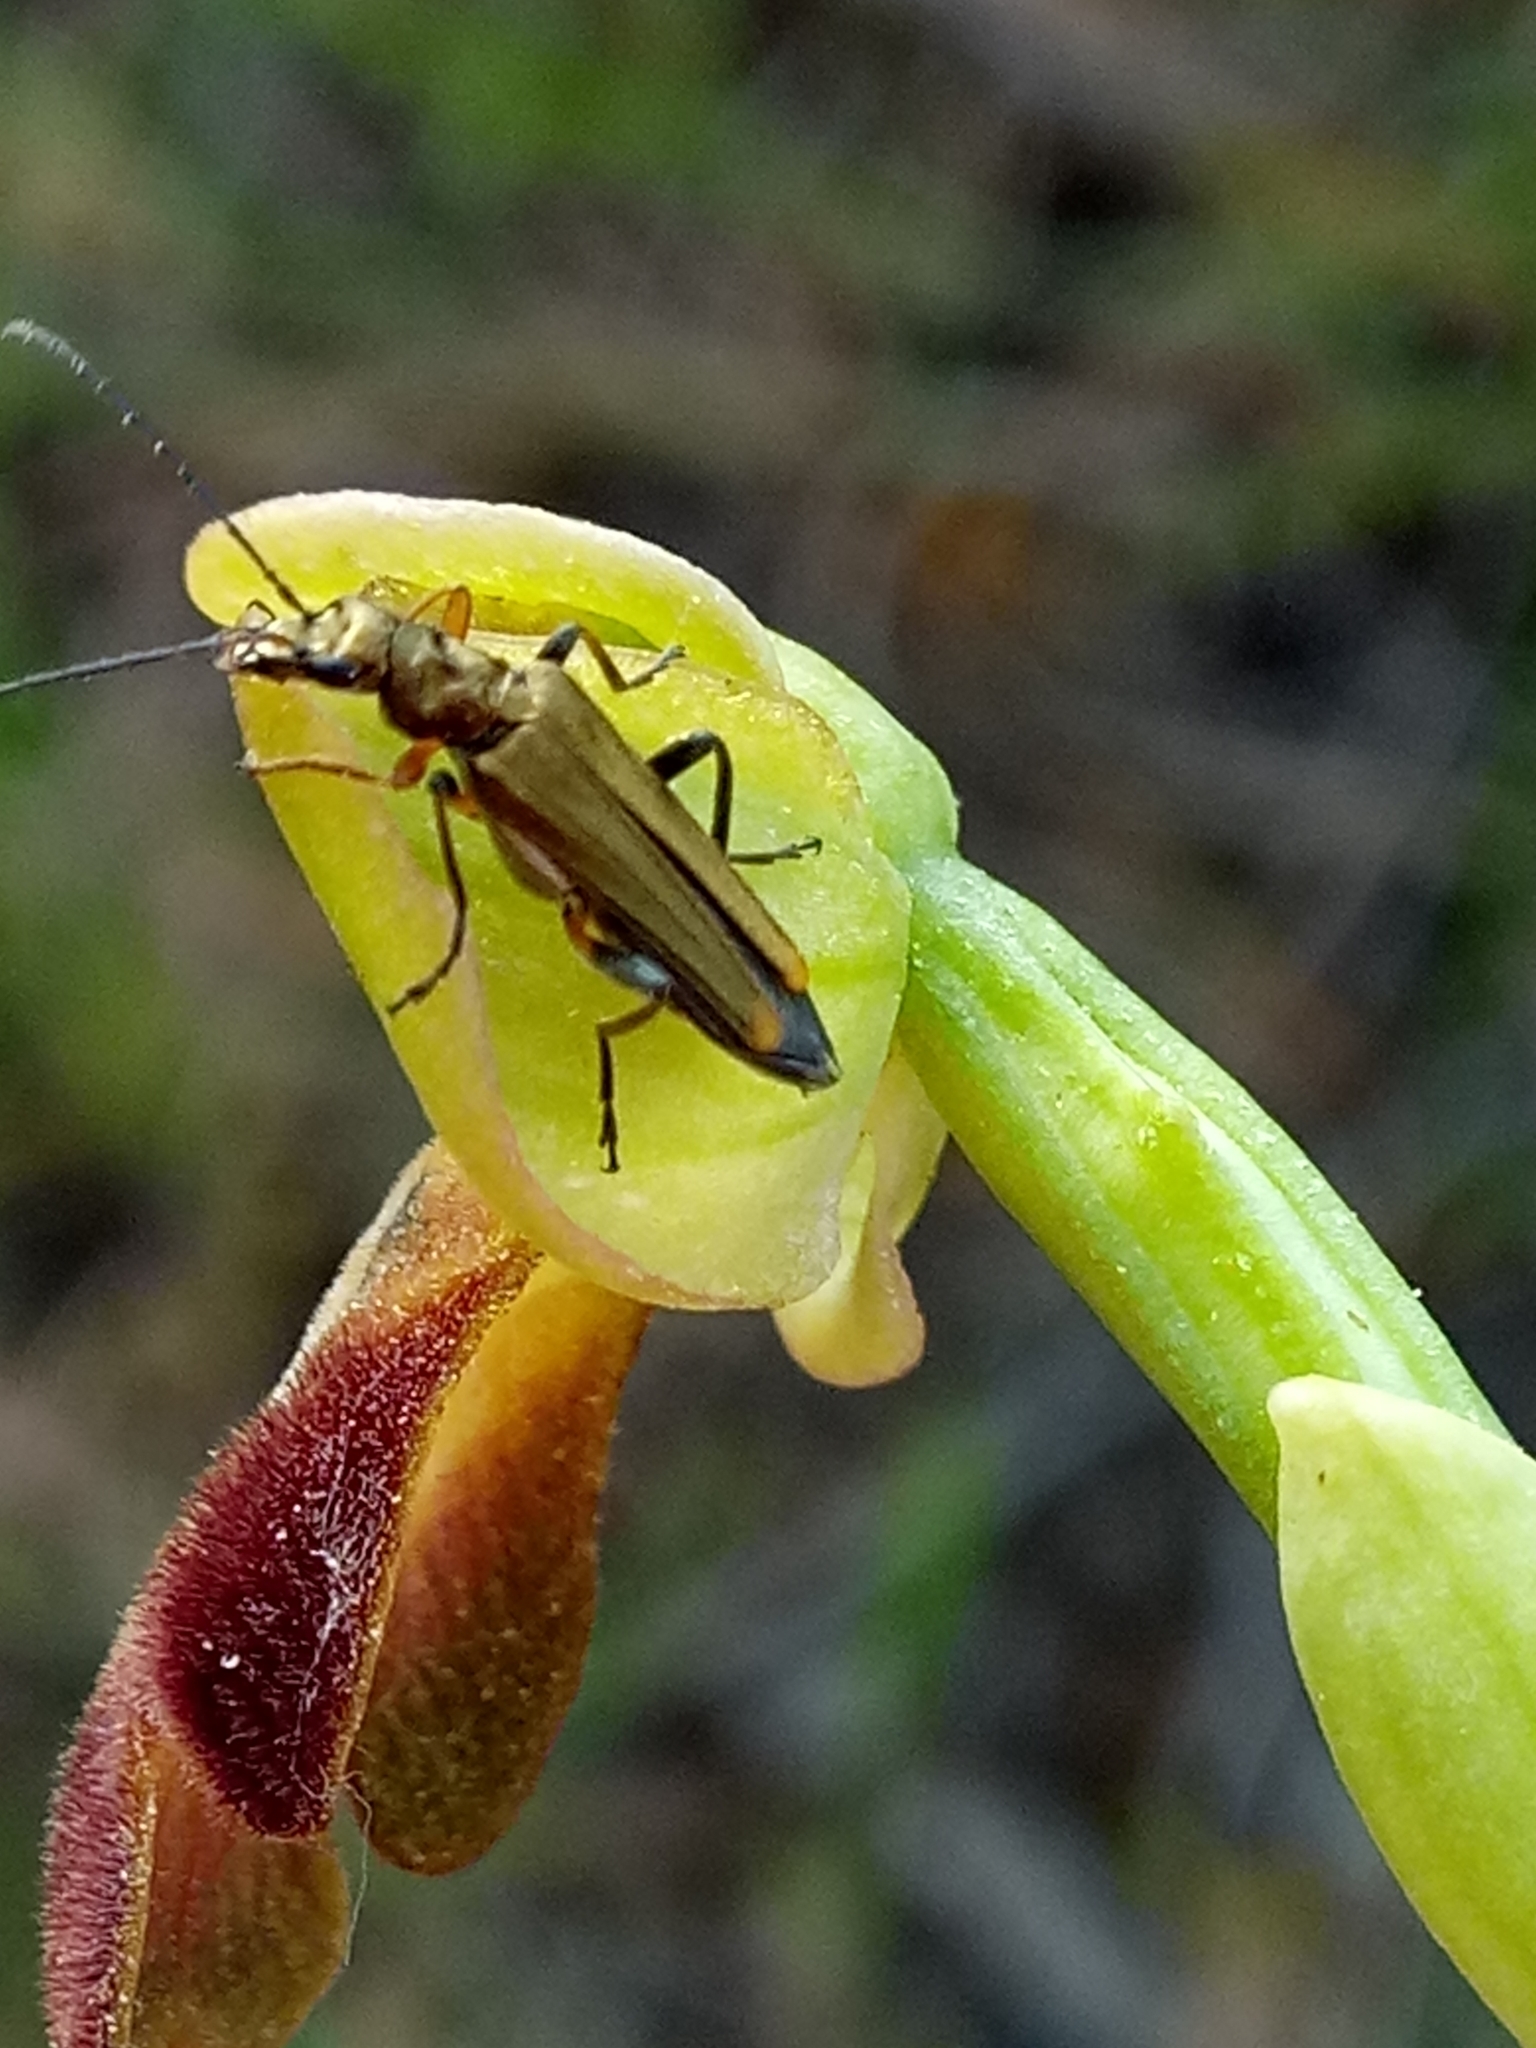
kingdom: Animalia
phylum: Arthropoda
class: Insecta
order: Coleoptera
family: Oedemeridae
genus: Oedemera
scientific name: Oedemera flavipes
